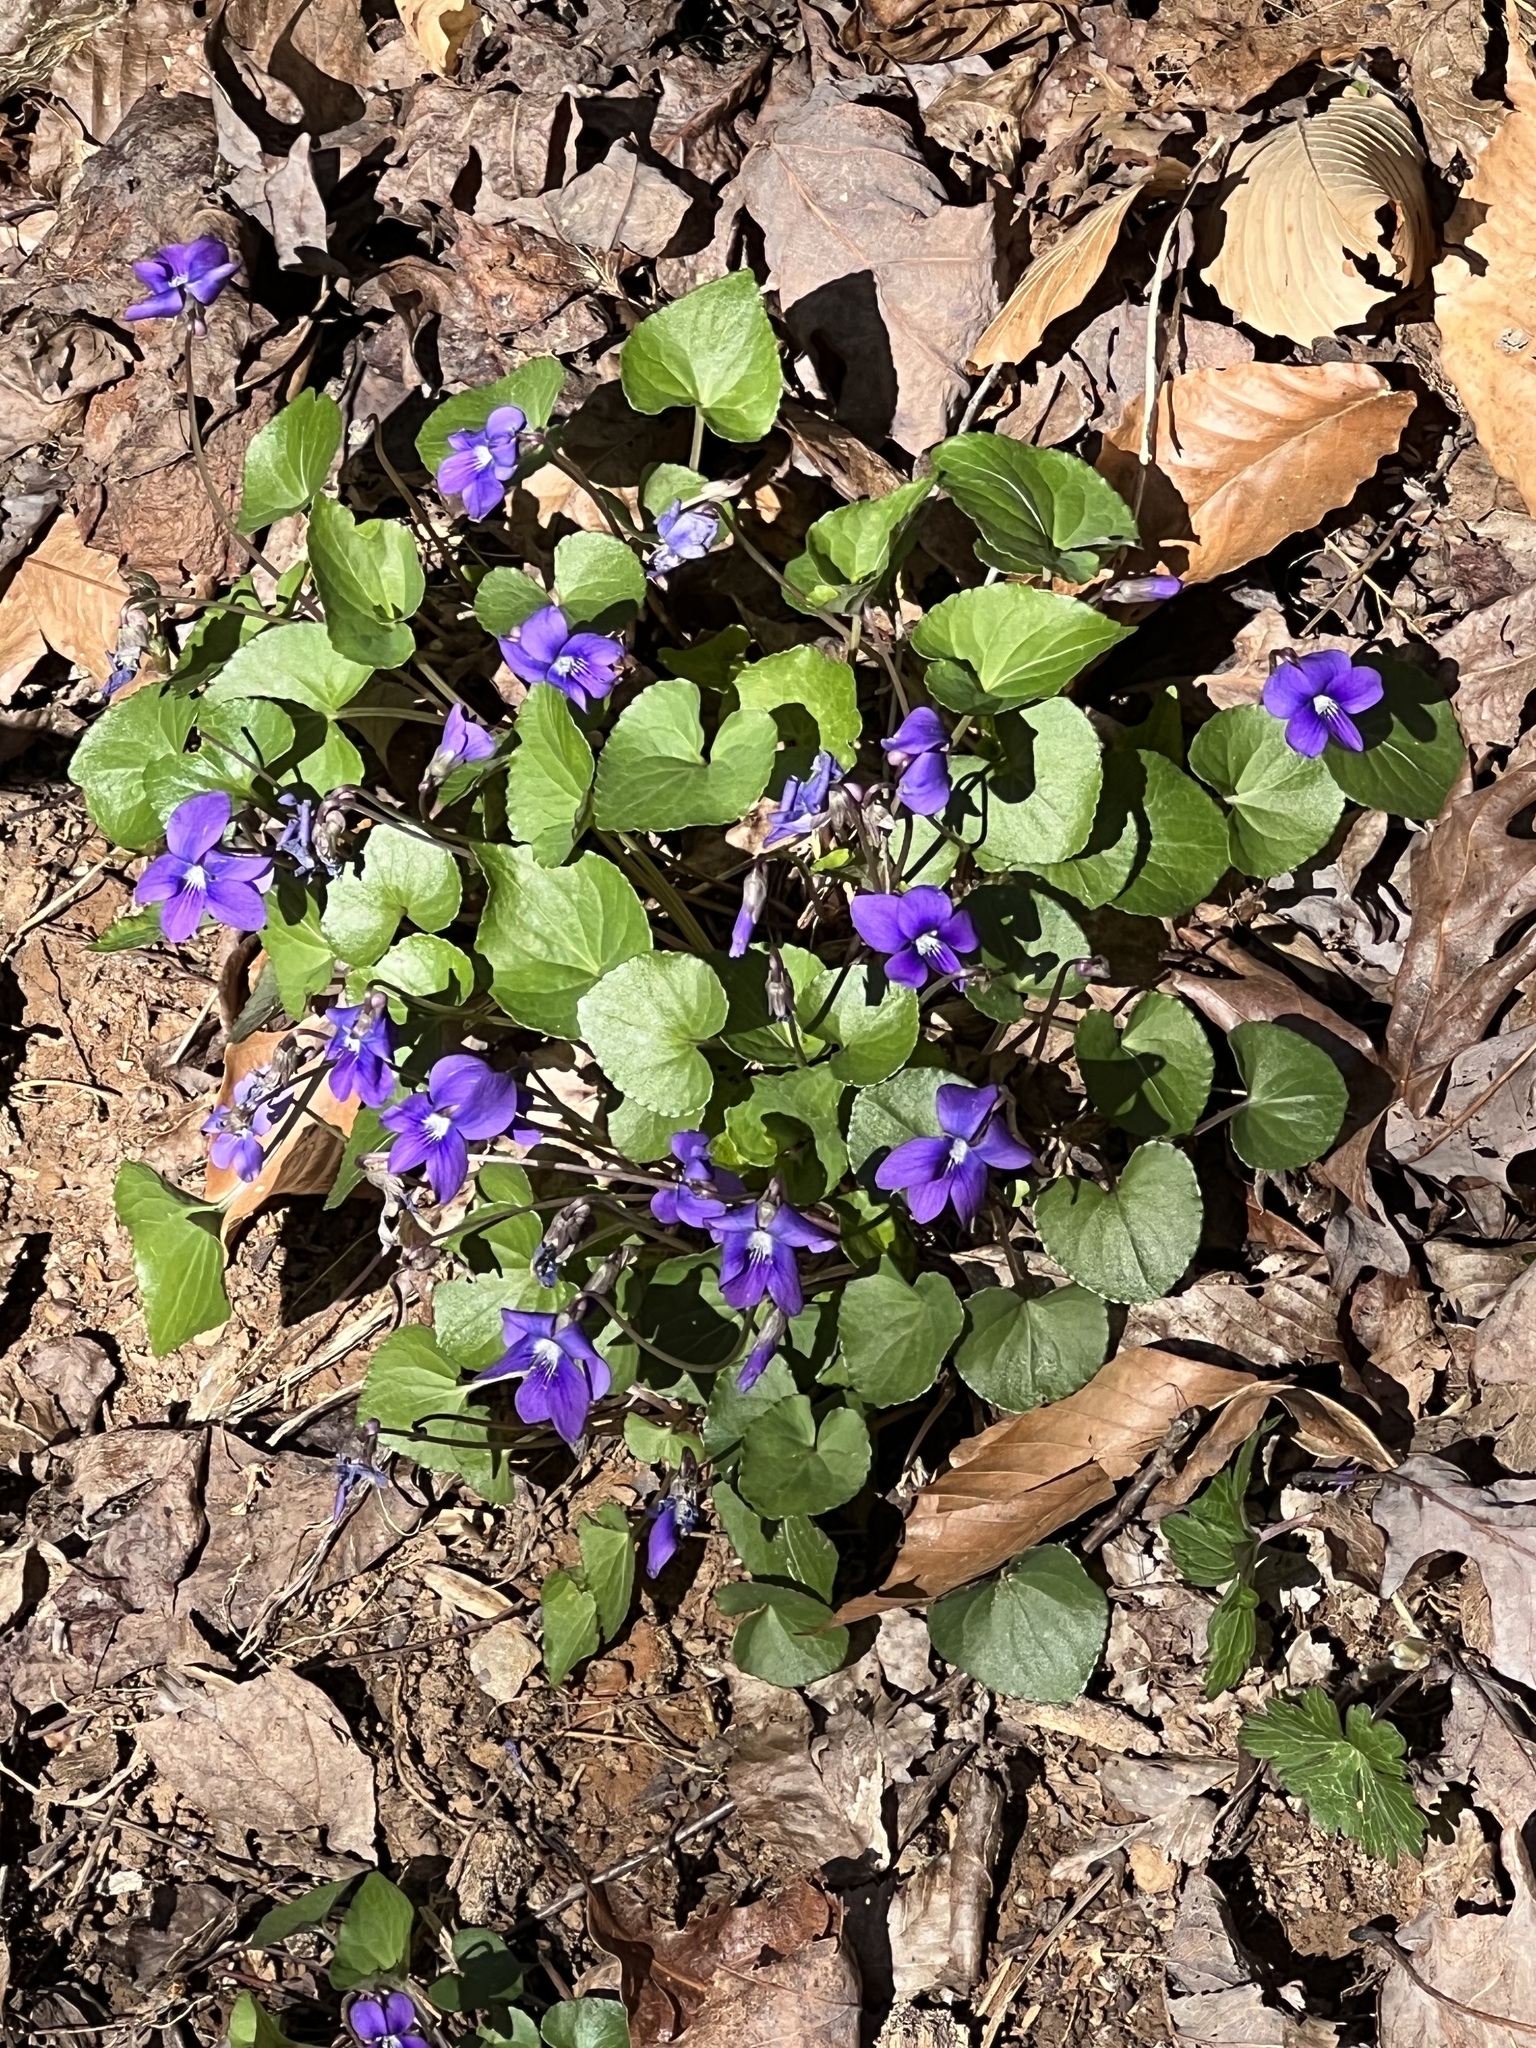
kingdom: Plantae
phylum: Tracheophyta
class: Magnoliopsida
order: Malpighiales
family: Violaceae
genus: Viola
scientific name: Viola sororia
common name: Dooryard violet
